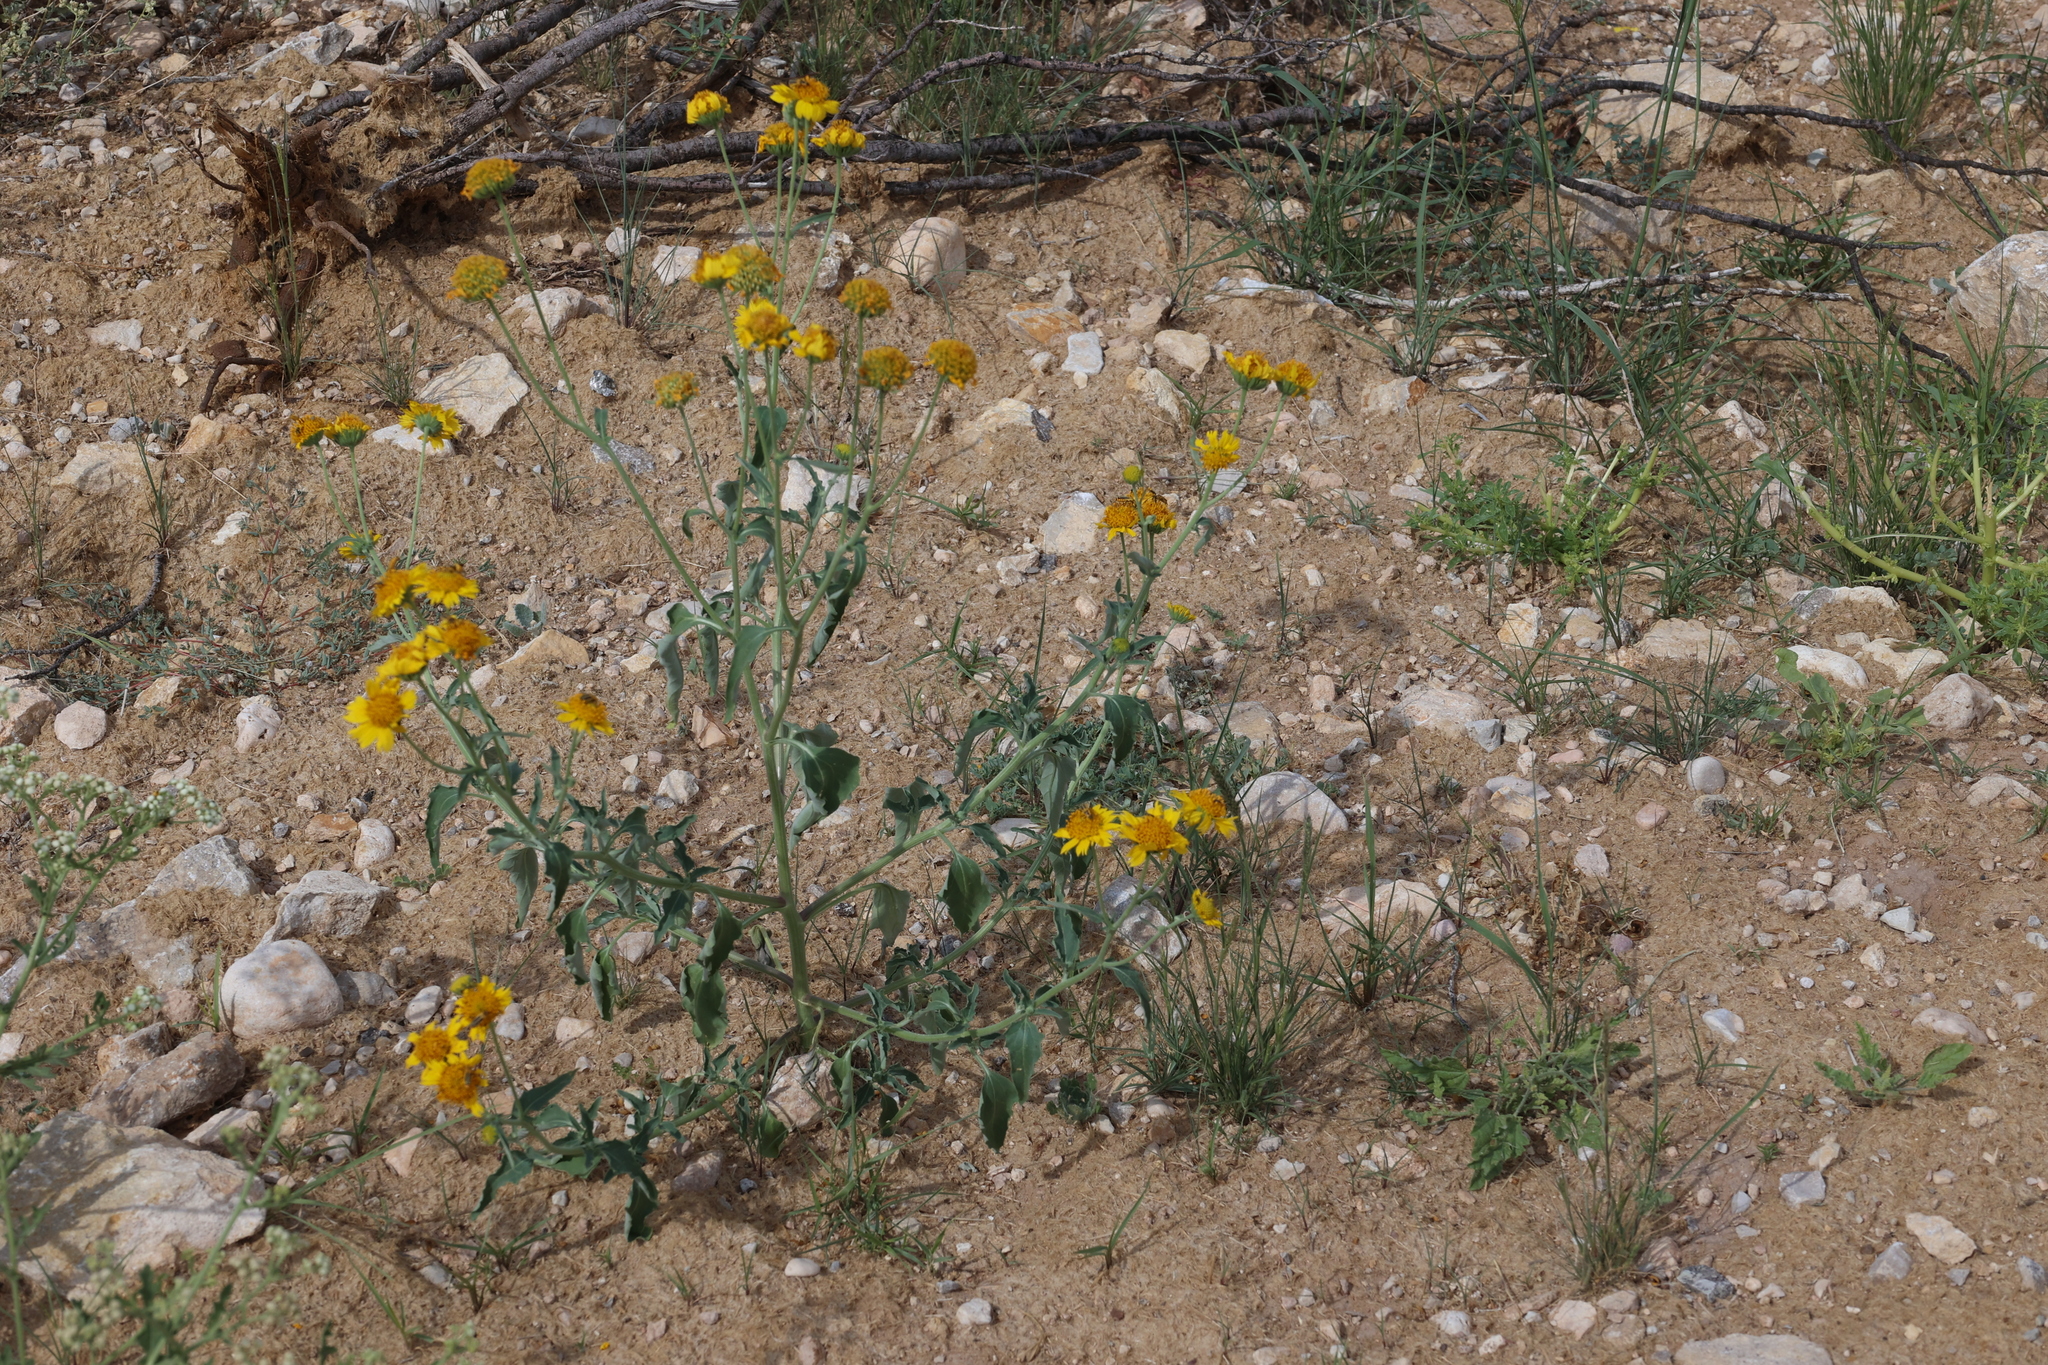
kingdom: Plantae
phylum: Tracheophyta
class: Magnoliopsida
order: Asterales
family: Asteraceae
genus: Verbesina
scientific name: Verbesina encelioides
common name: Golden crownbeard
